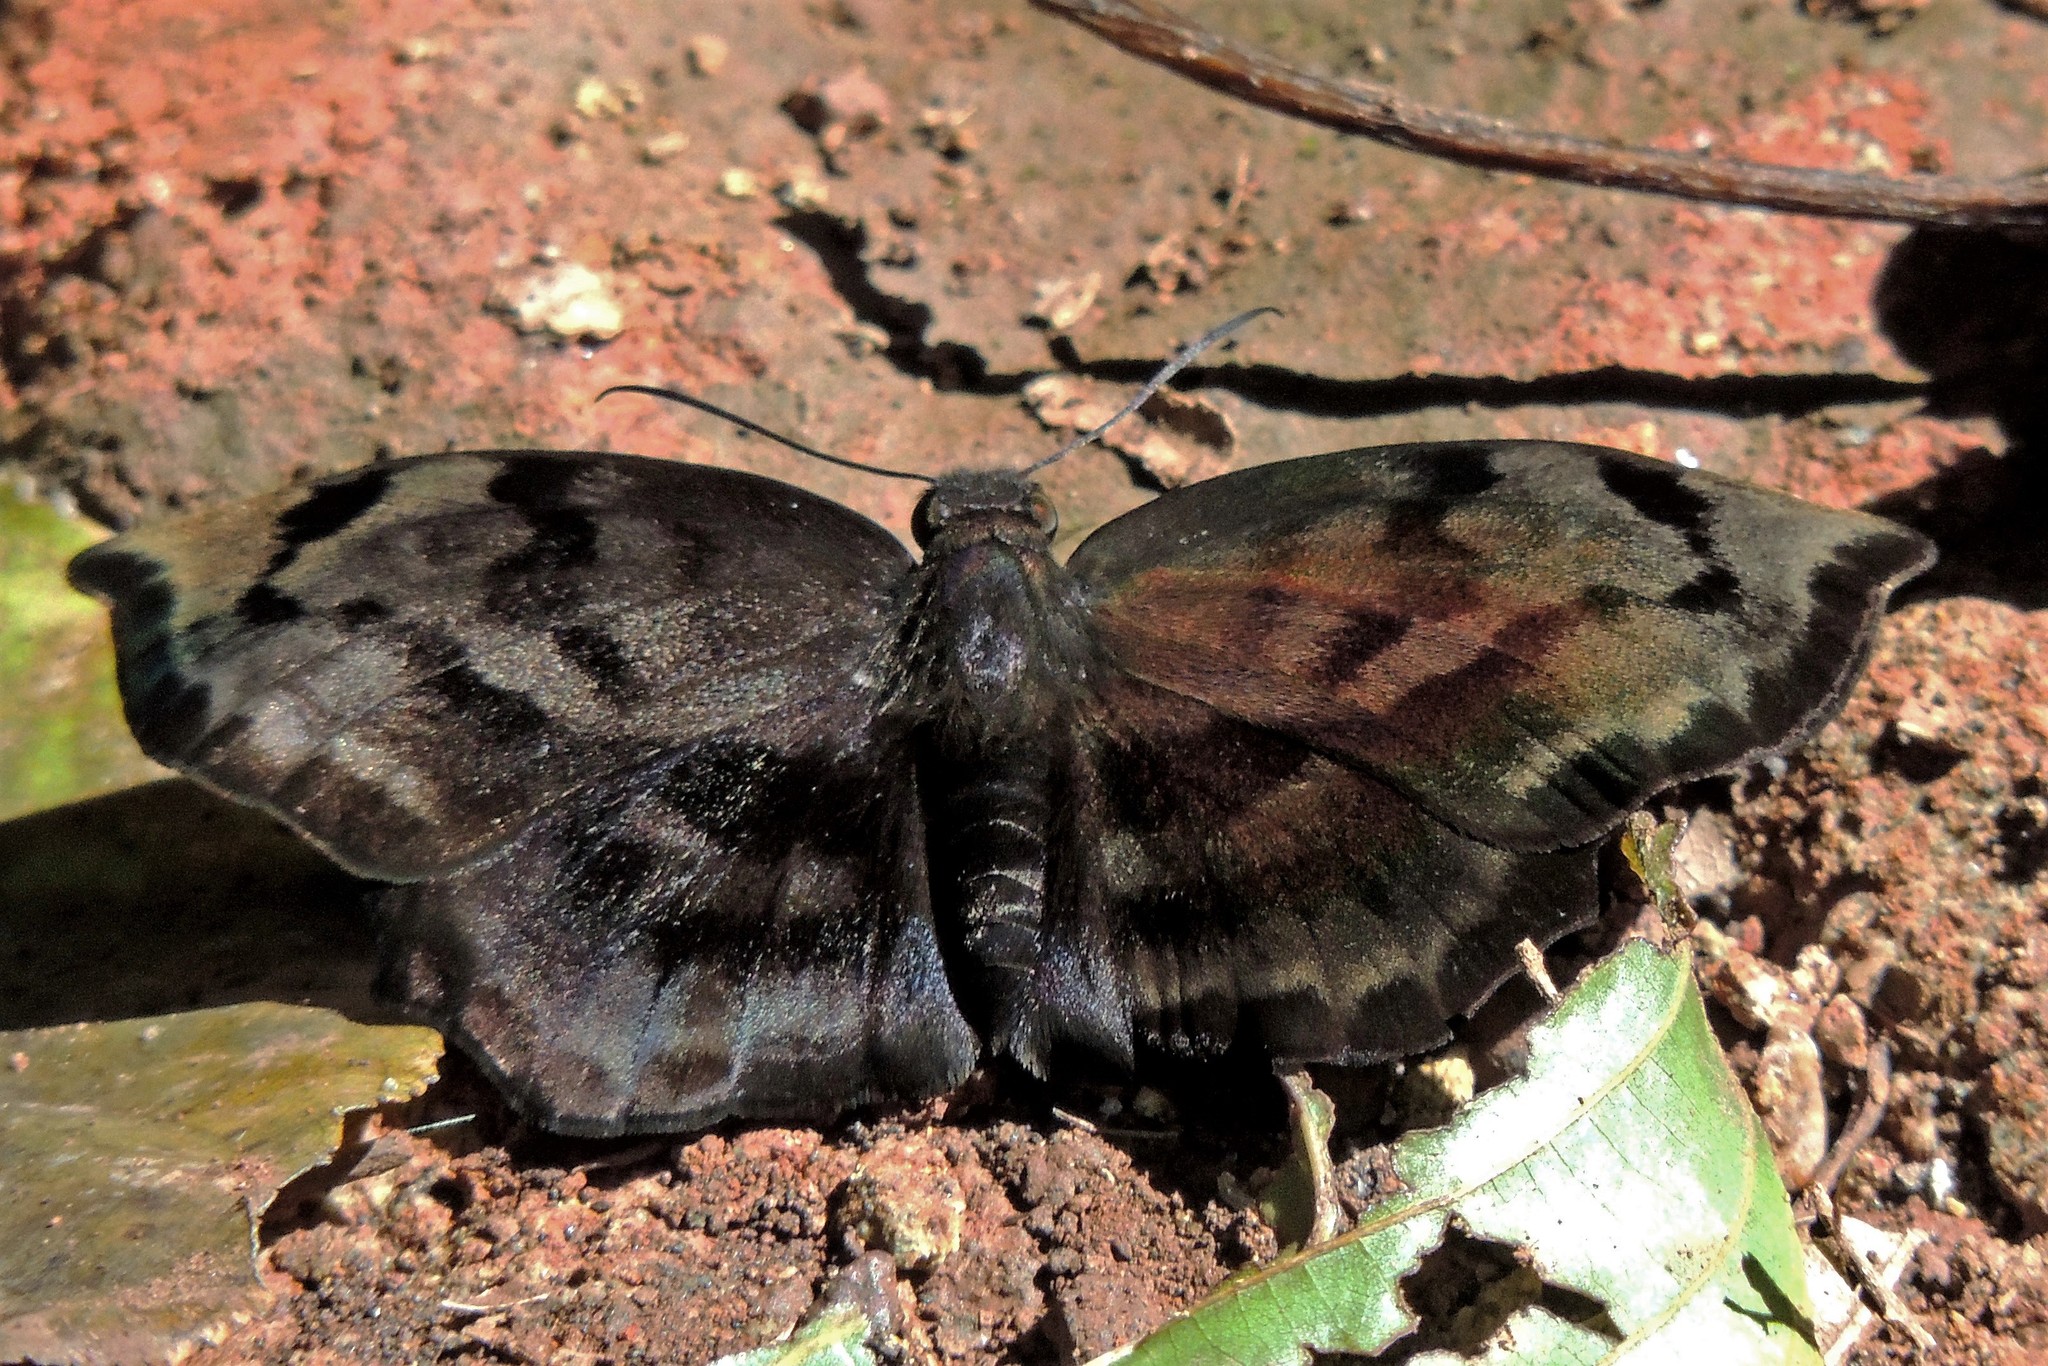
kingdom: Animalia
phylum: Arthropoda
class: Insecta
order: Lepidoptera
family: Hesperiidae
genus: Achlyodes
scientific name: Achlyodes busirus
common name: Giant sicklewing
